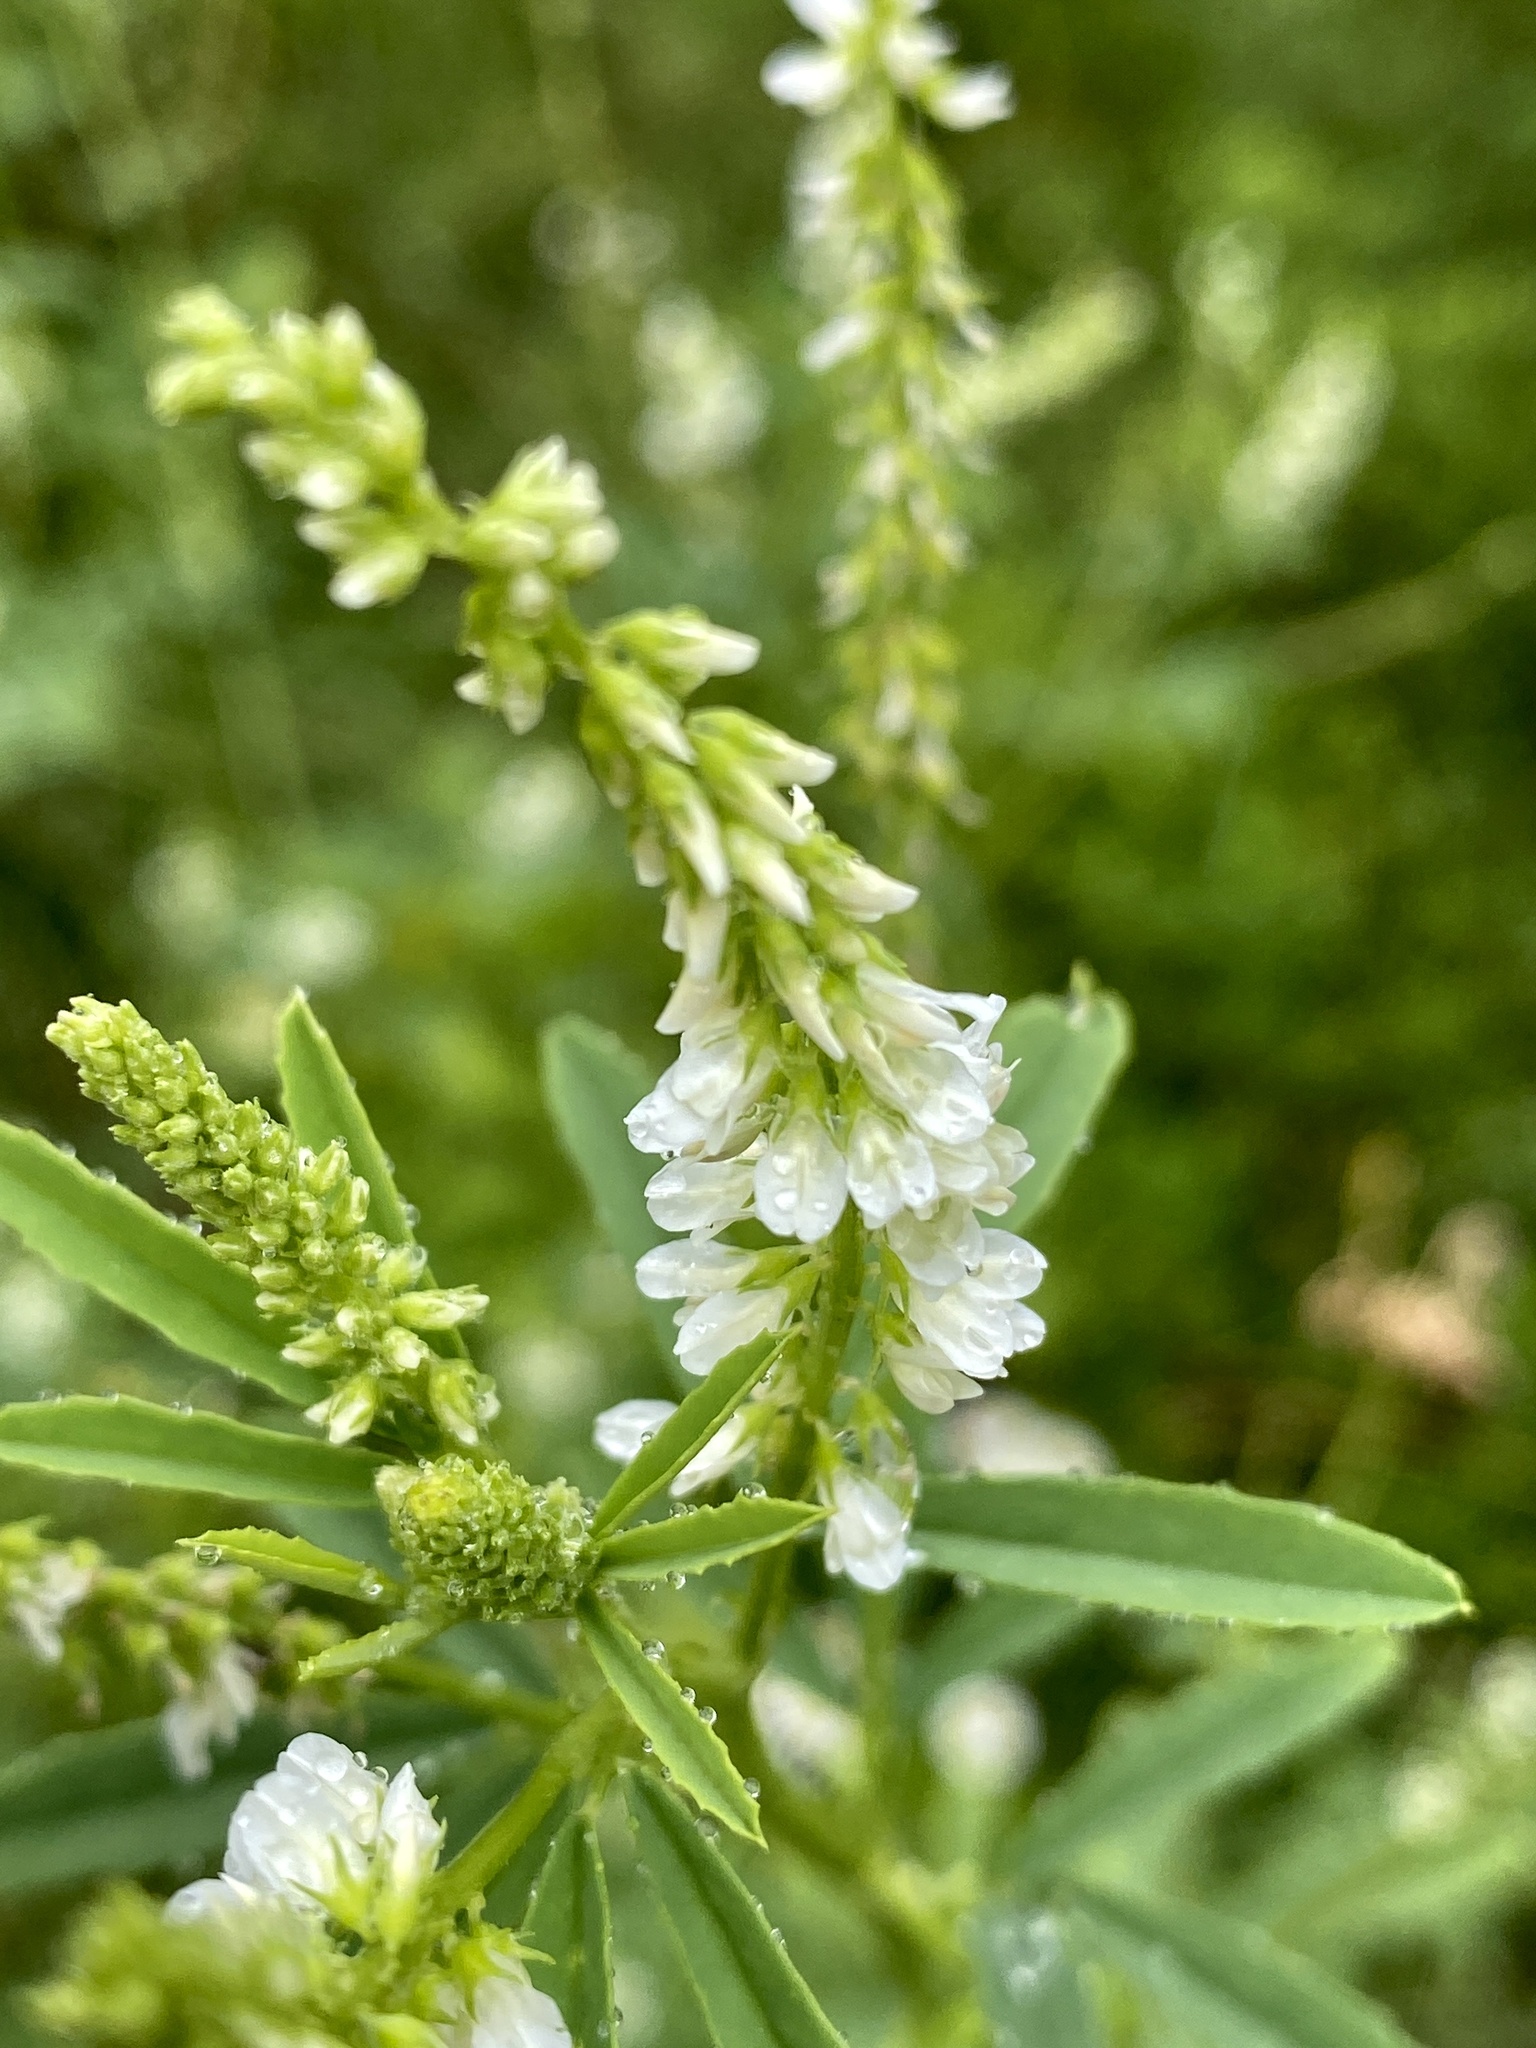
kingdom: Plantae
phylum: Tracheophyta
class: Magnoliopsida
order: Fabales
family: Fabaceae
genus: Melilotus
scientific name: Melilotus albus
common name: White melilot
